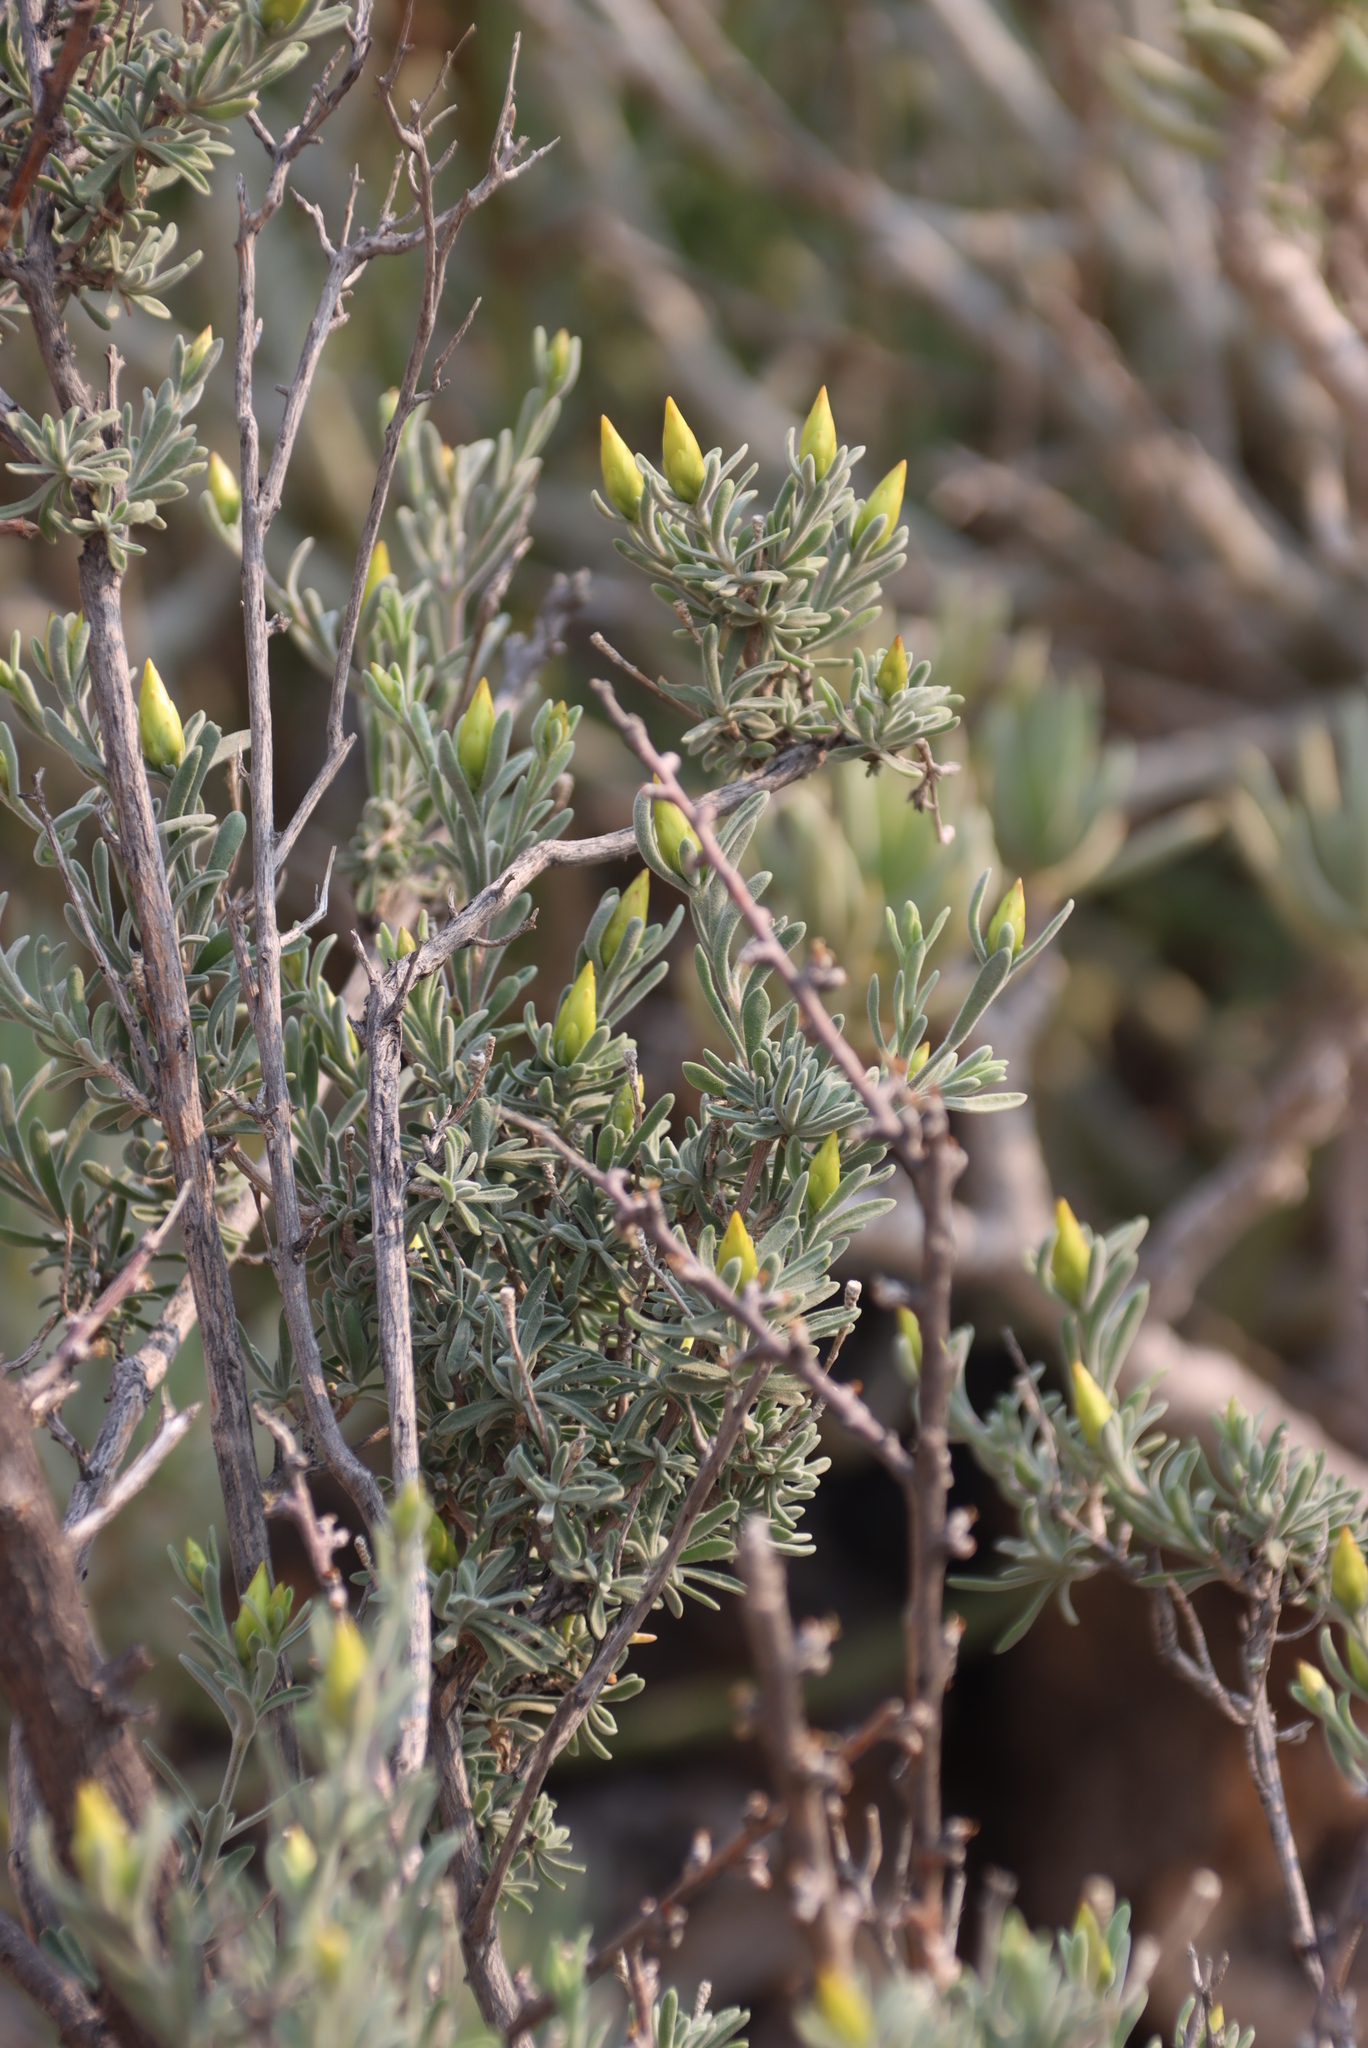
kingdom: Plantae
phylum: Tracheophyta
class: Magnoliopsida
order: Asterales
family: Asteraceae
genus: Pteronia
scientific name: Pteronia lucilioides
